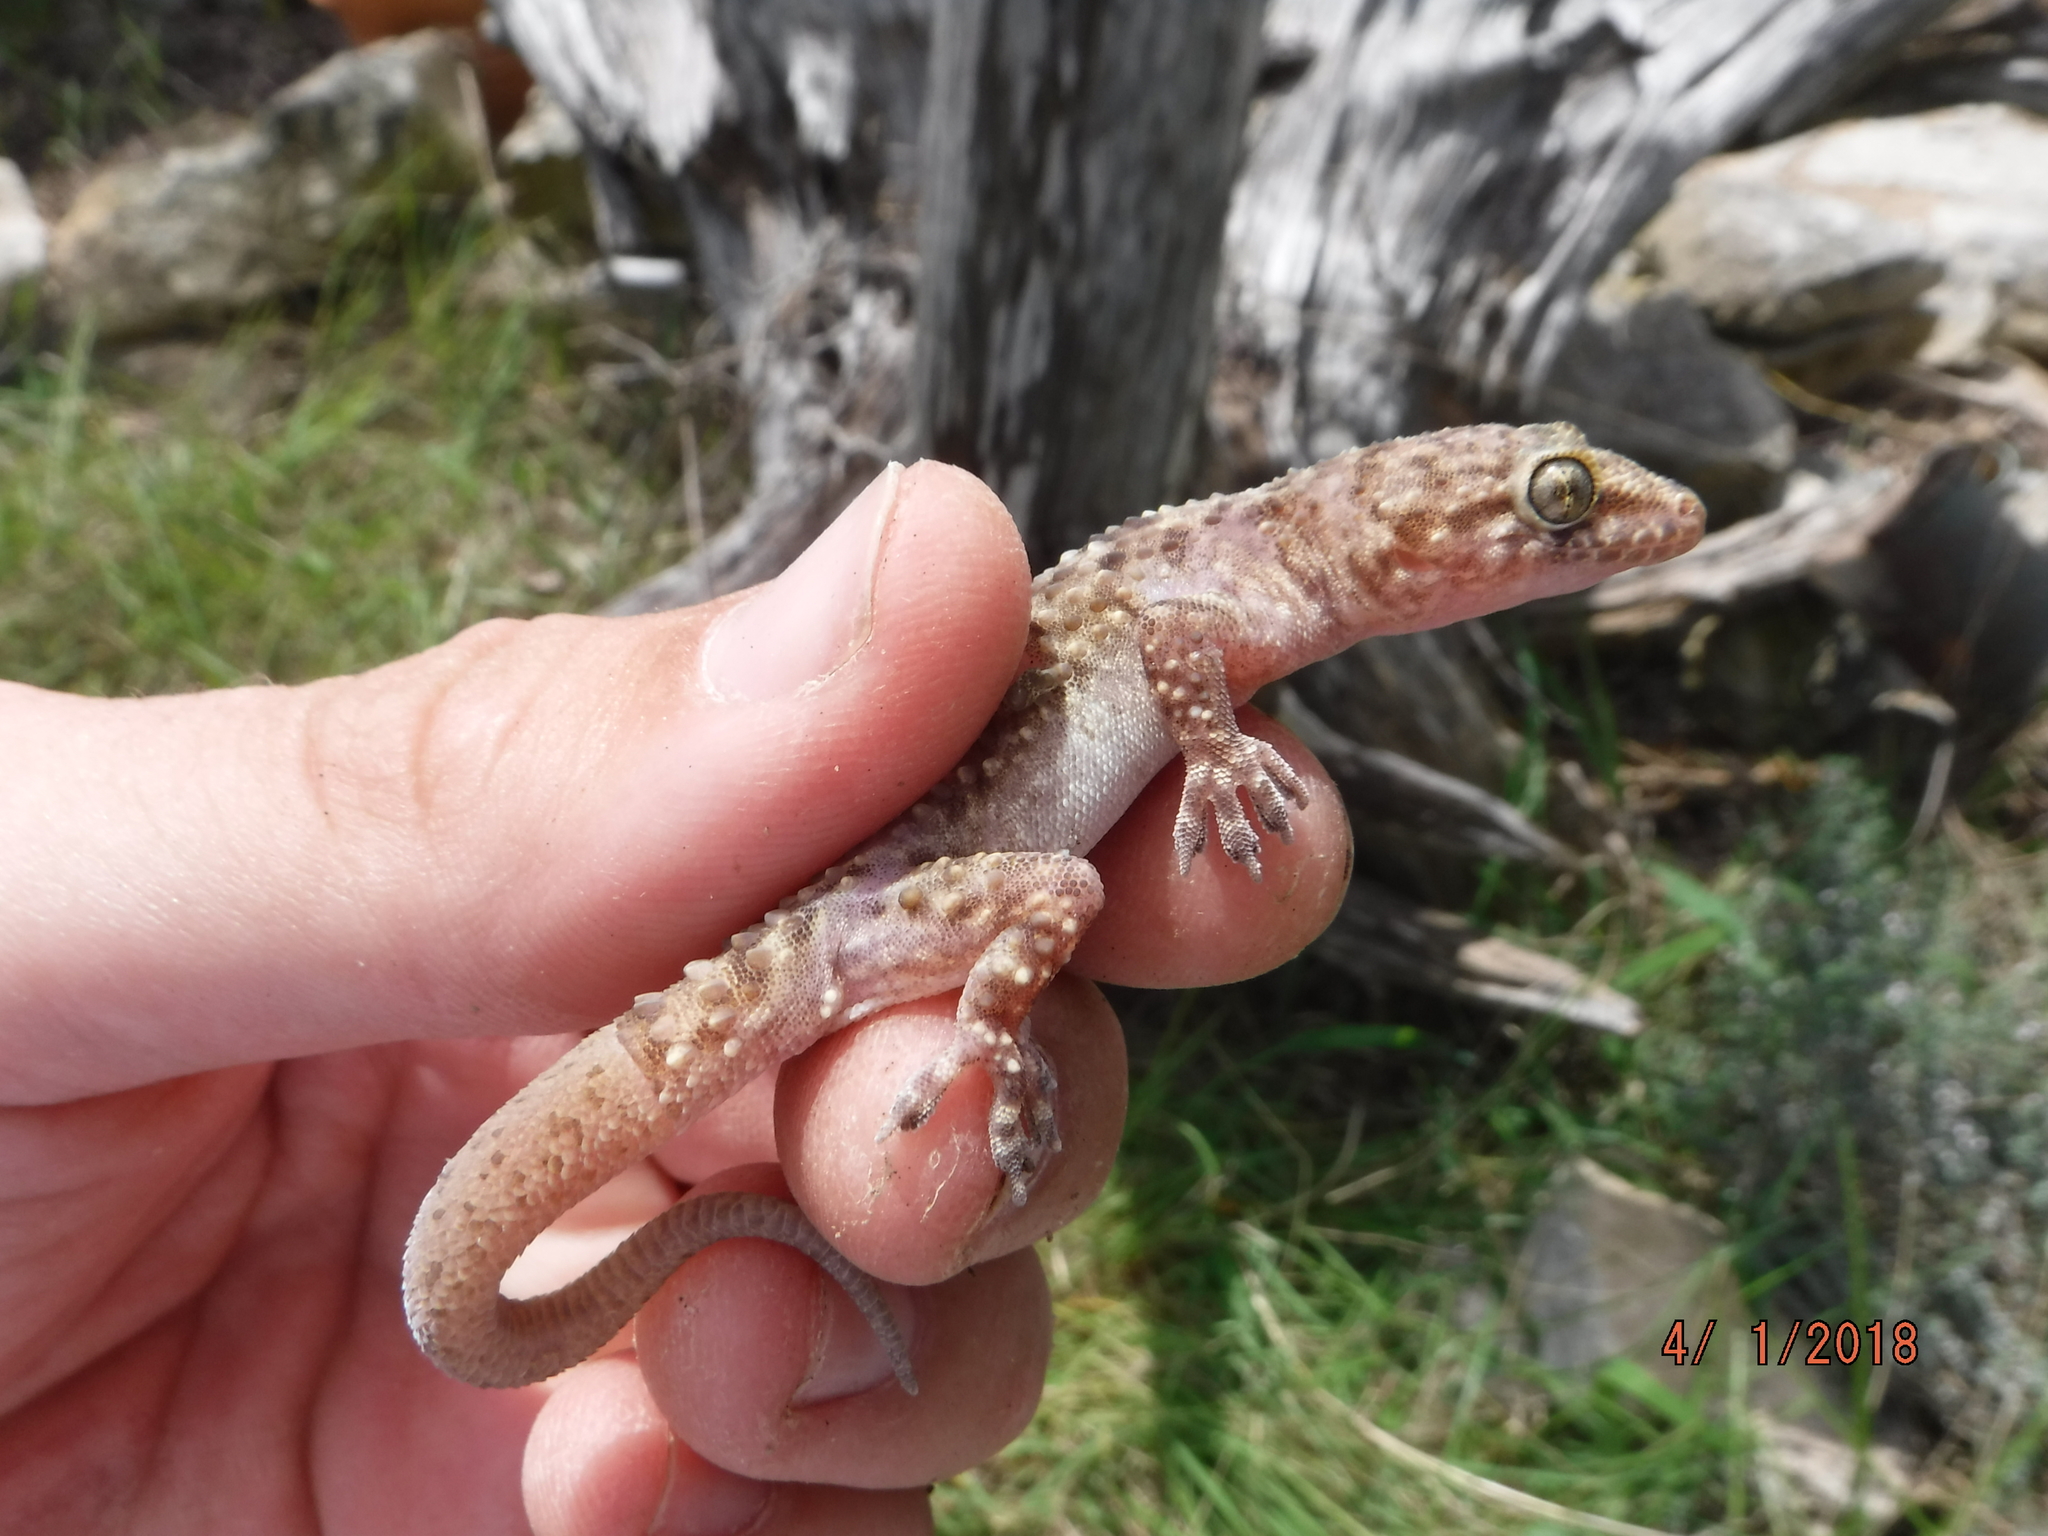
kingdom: Animalia
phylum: Chordata
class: Squamata
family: Gekkonidae
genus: Hemidactylus
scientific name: Hemidactylus turcicus
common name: Turkish gecko
